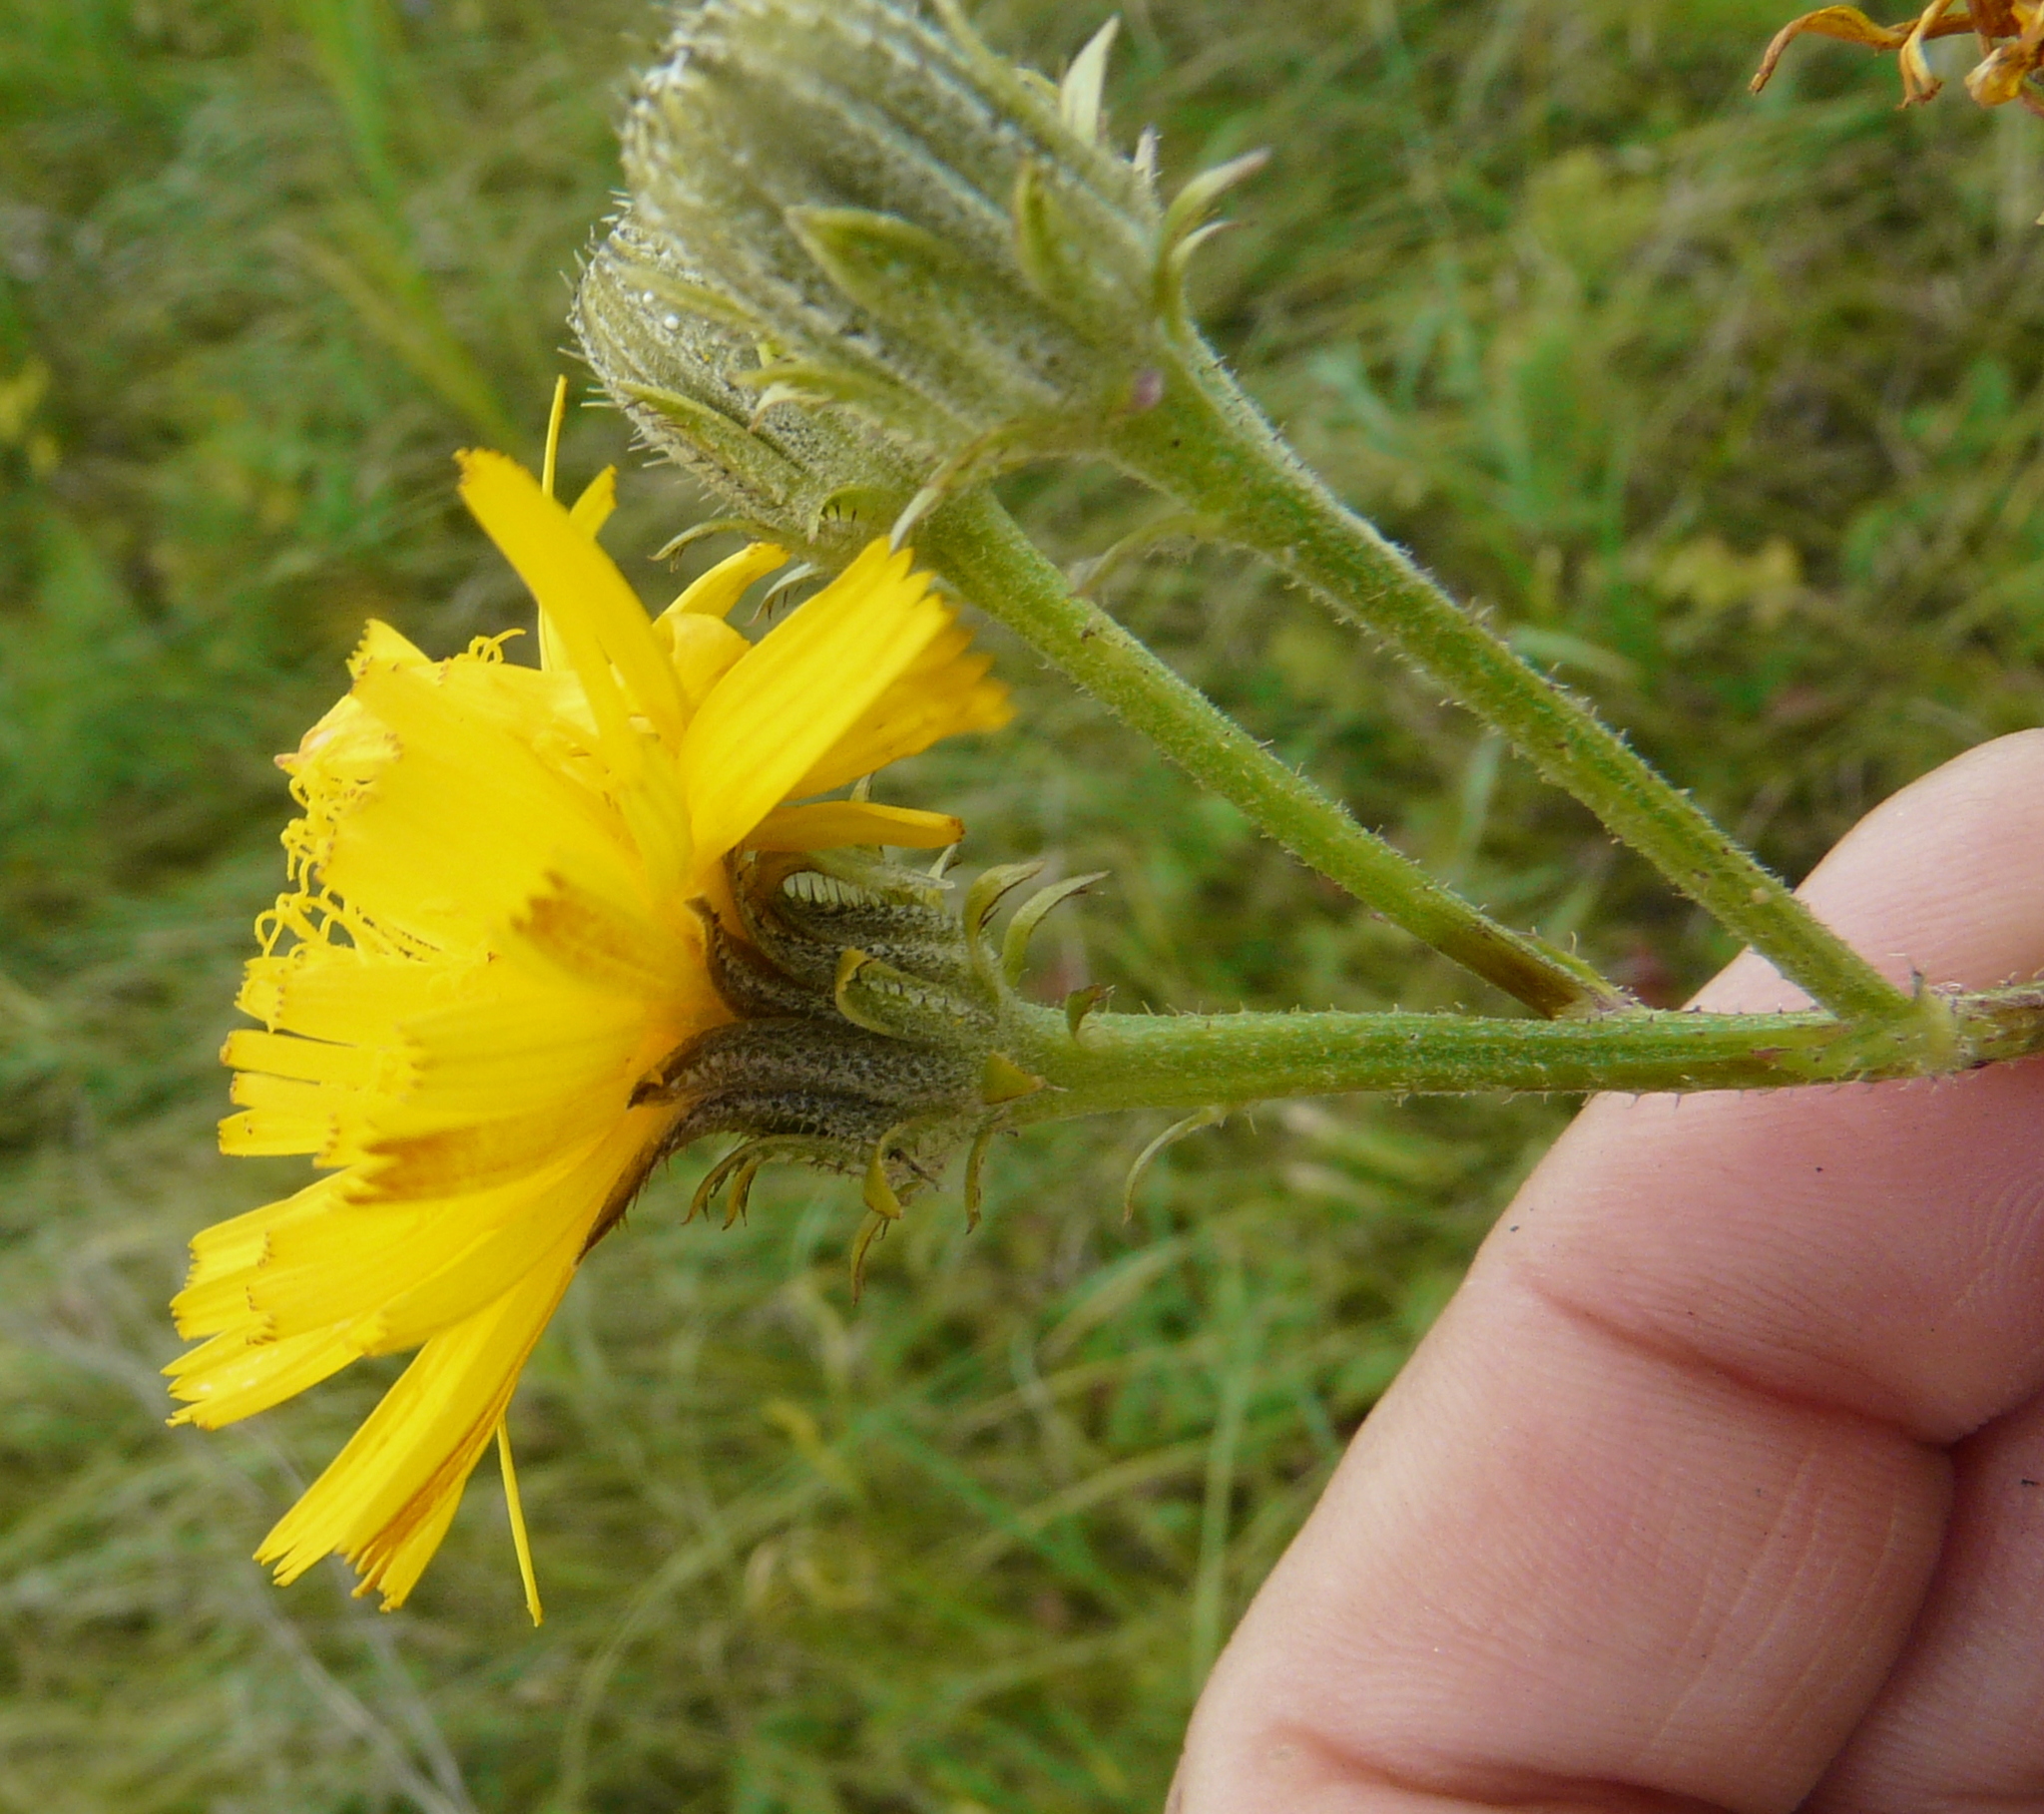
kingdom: Plantae
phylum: Tracheophyta
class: Magnoliopsida
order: Asterales
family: Asteraceae
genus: Picris
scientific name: Picris hieracioides
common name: Hawkweed oxtongue
